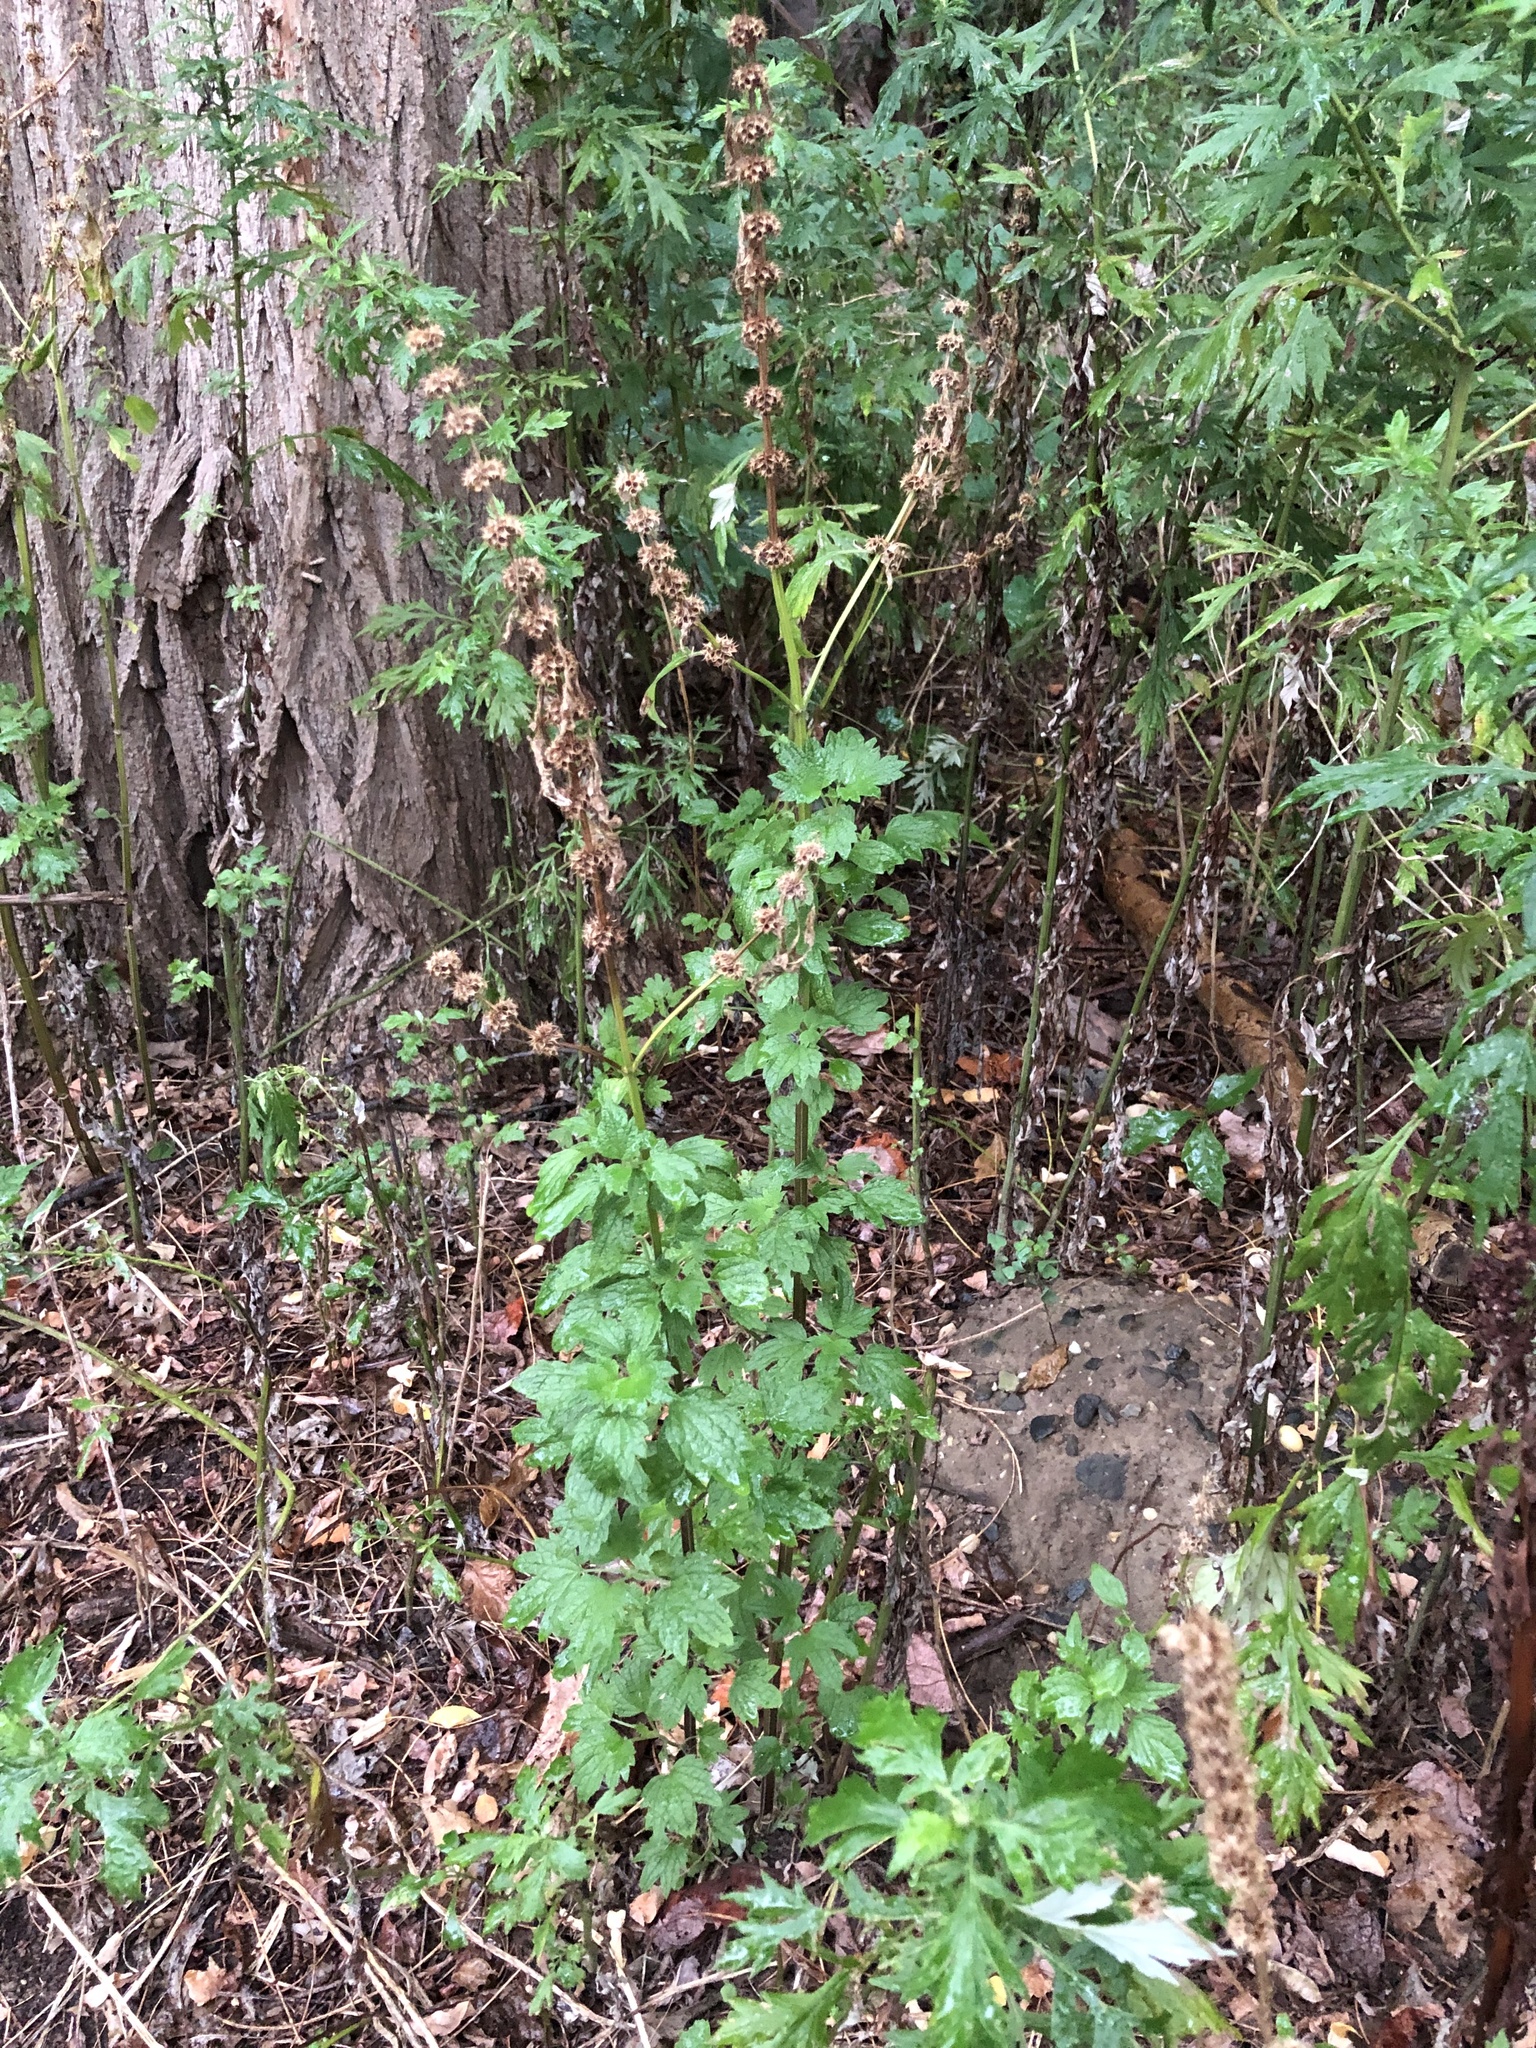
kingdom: Plantae
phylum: Tracheophyta
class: Magnoliopsida
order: Lamiales
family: Lamiaceae
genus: Leonurus
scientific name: Leonurus cardiaca
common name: Motherwort
